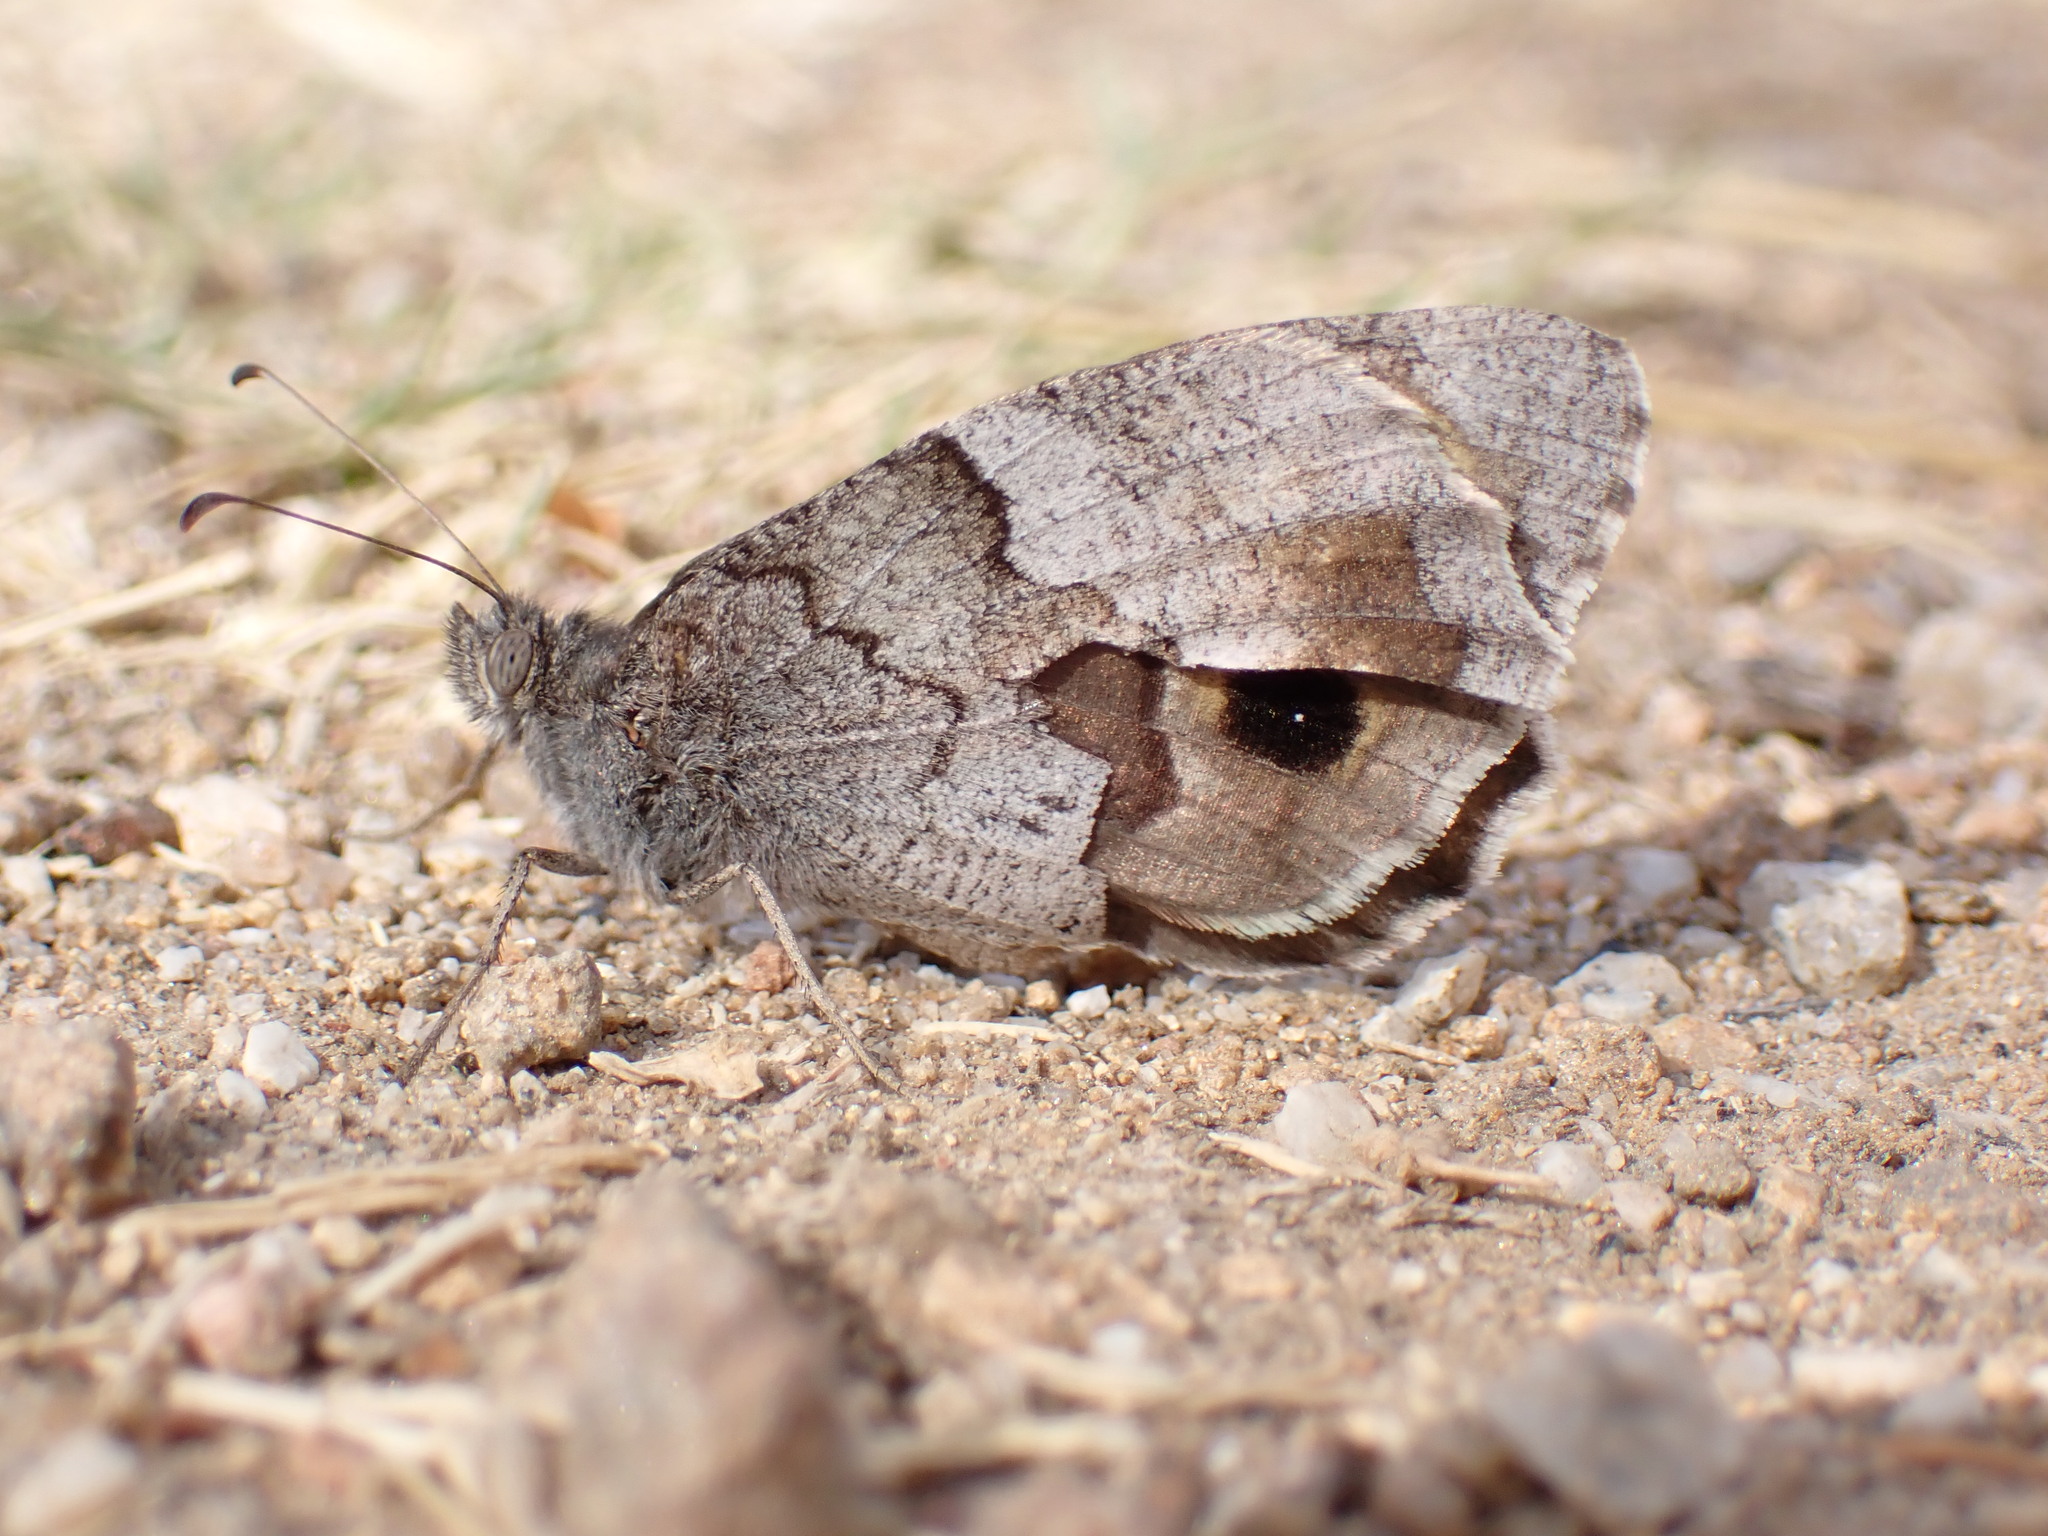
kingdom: Animalia
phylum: Arthropoda
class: Insecta
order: Lepidoptera
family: Nymphalidae
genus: Hipparchia
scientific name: Hipparchia statilinus
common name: Tree grayling
